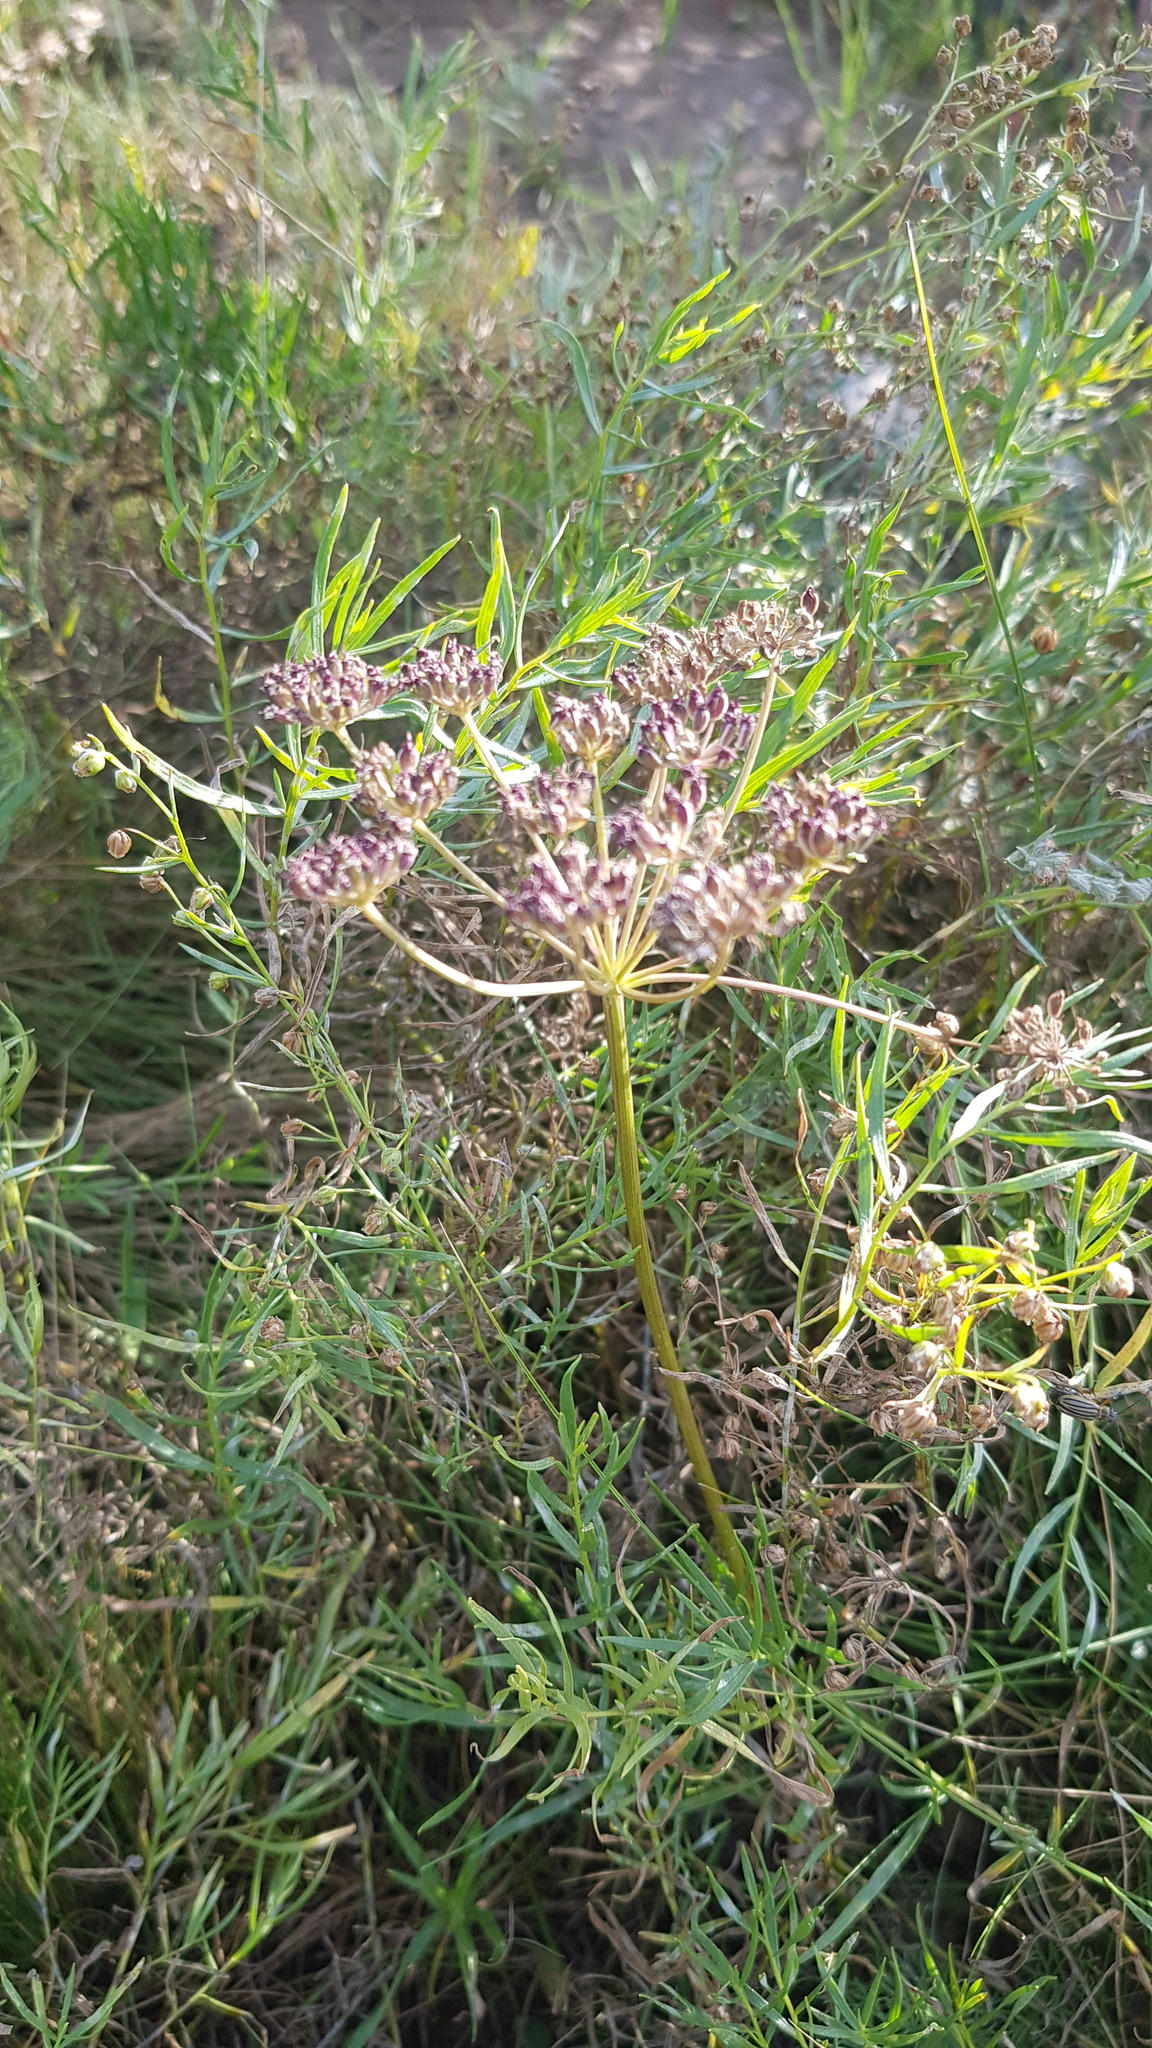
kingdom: Plantae
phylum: Tracheophyta
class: Magnoliopsida
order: Apiales
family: Apiaceae
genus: Peucedanum
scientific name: Peucedanum vaginatum
